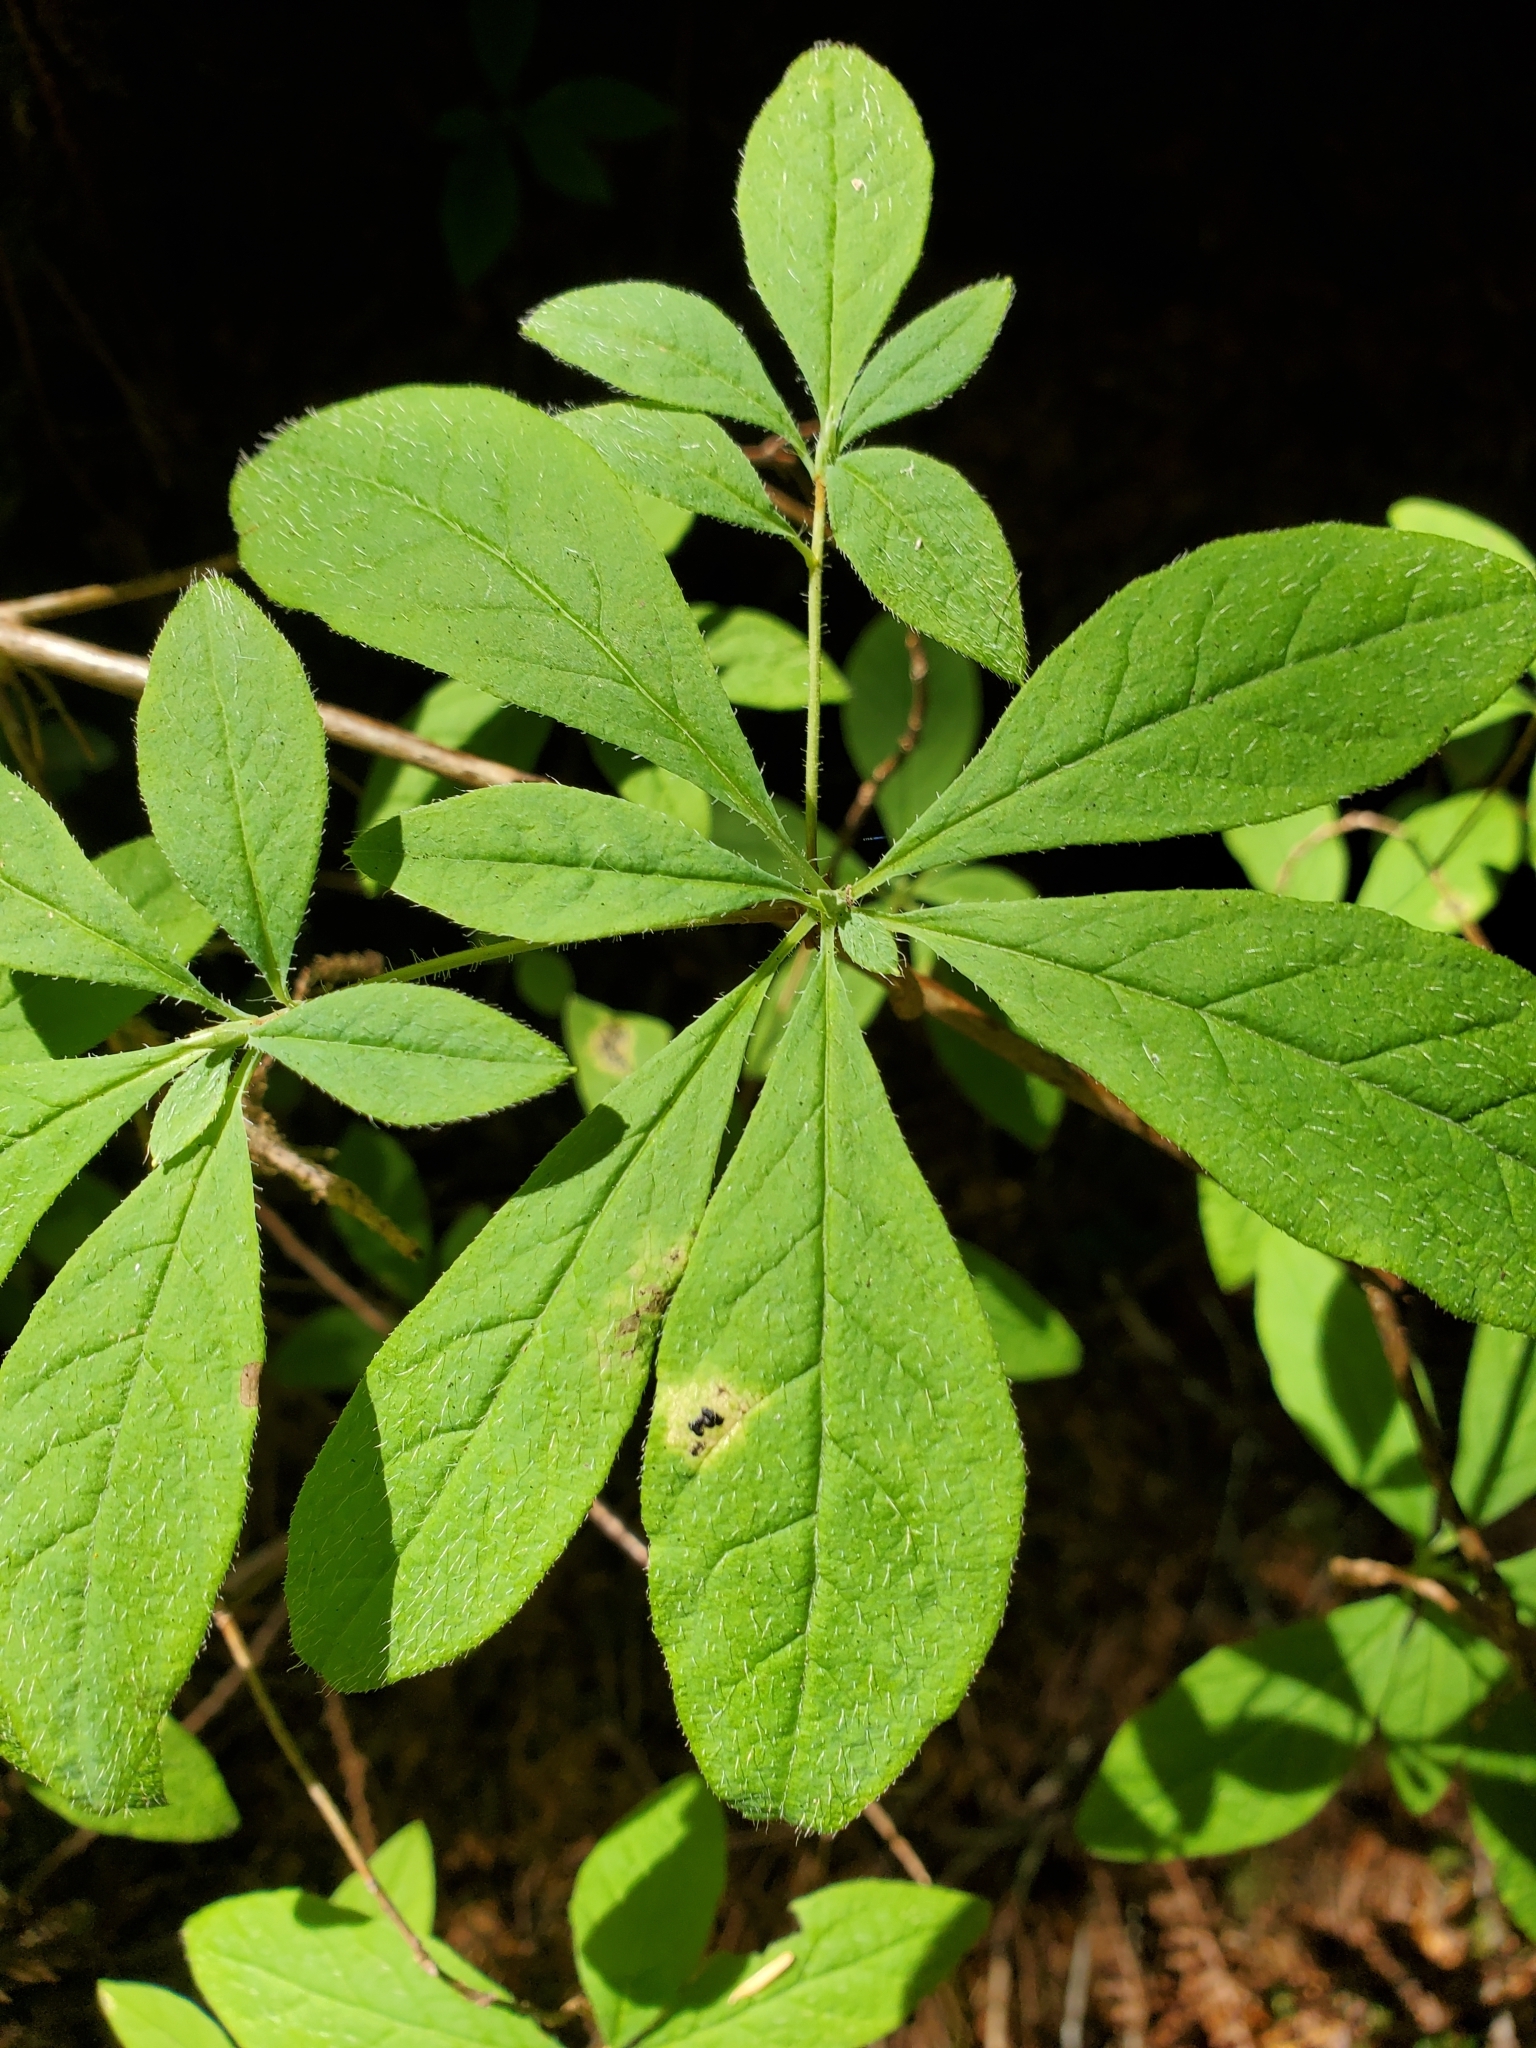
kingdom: Plantae
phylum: Tracheophyta
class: Magnoliopsida
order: Ericales
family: Ericaceae
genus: Rhododendron
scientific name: Rhododendron menziesii
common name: Pacific menziesia
